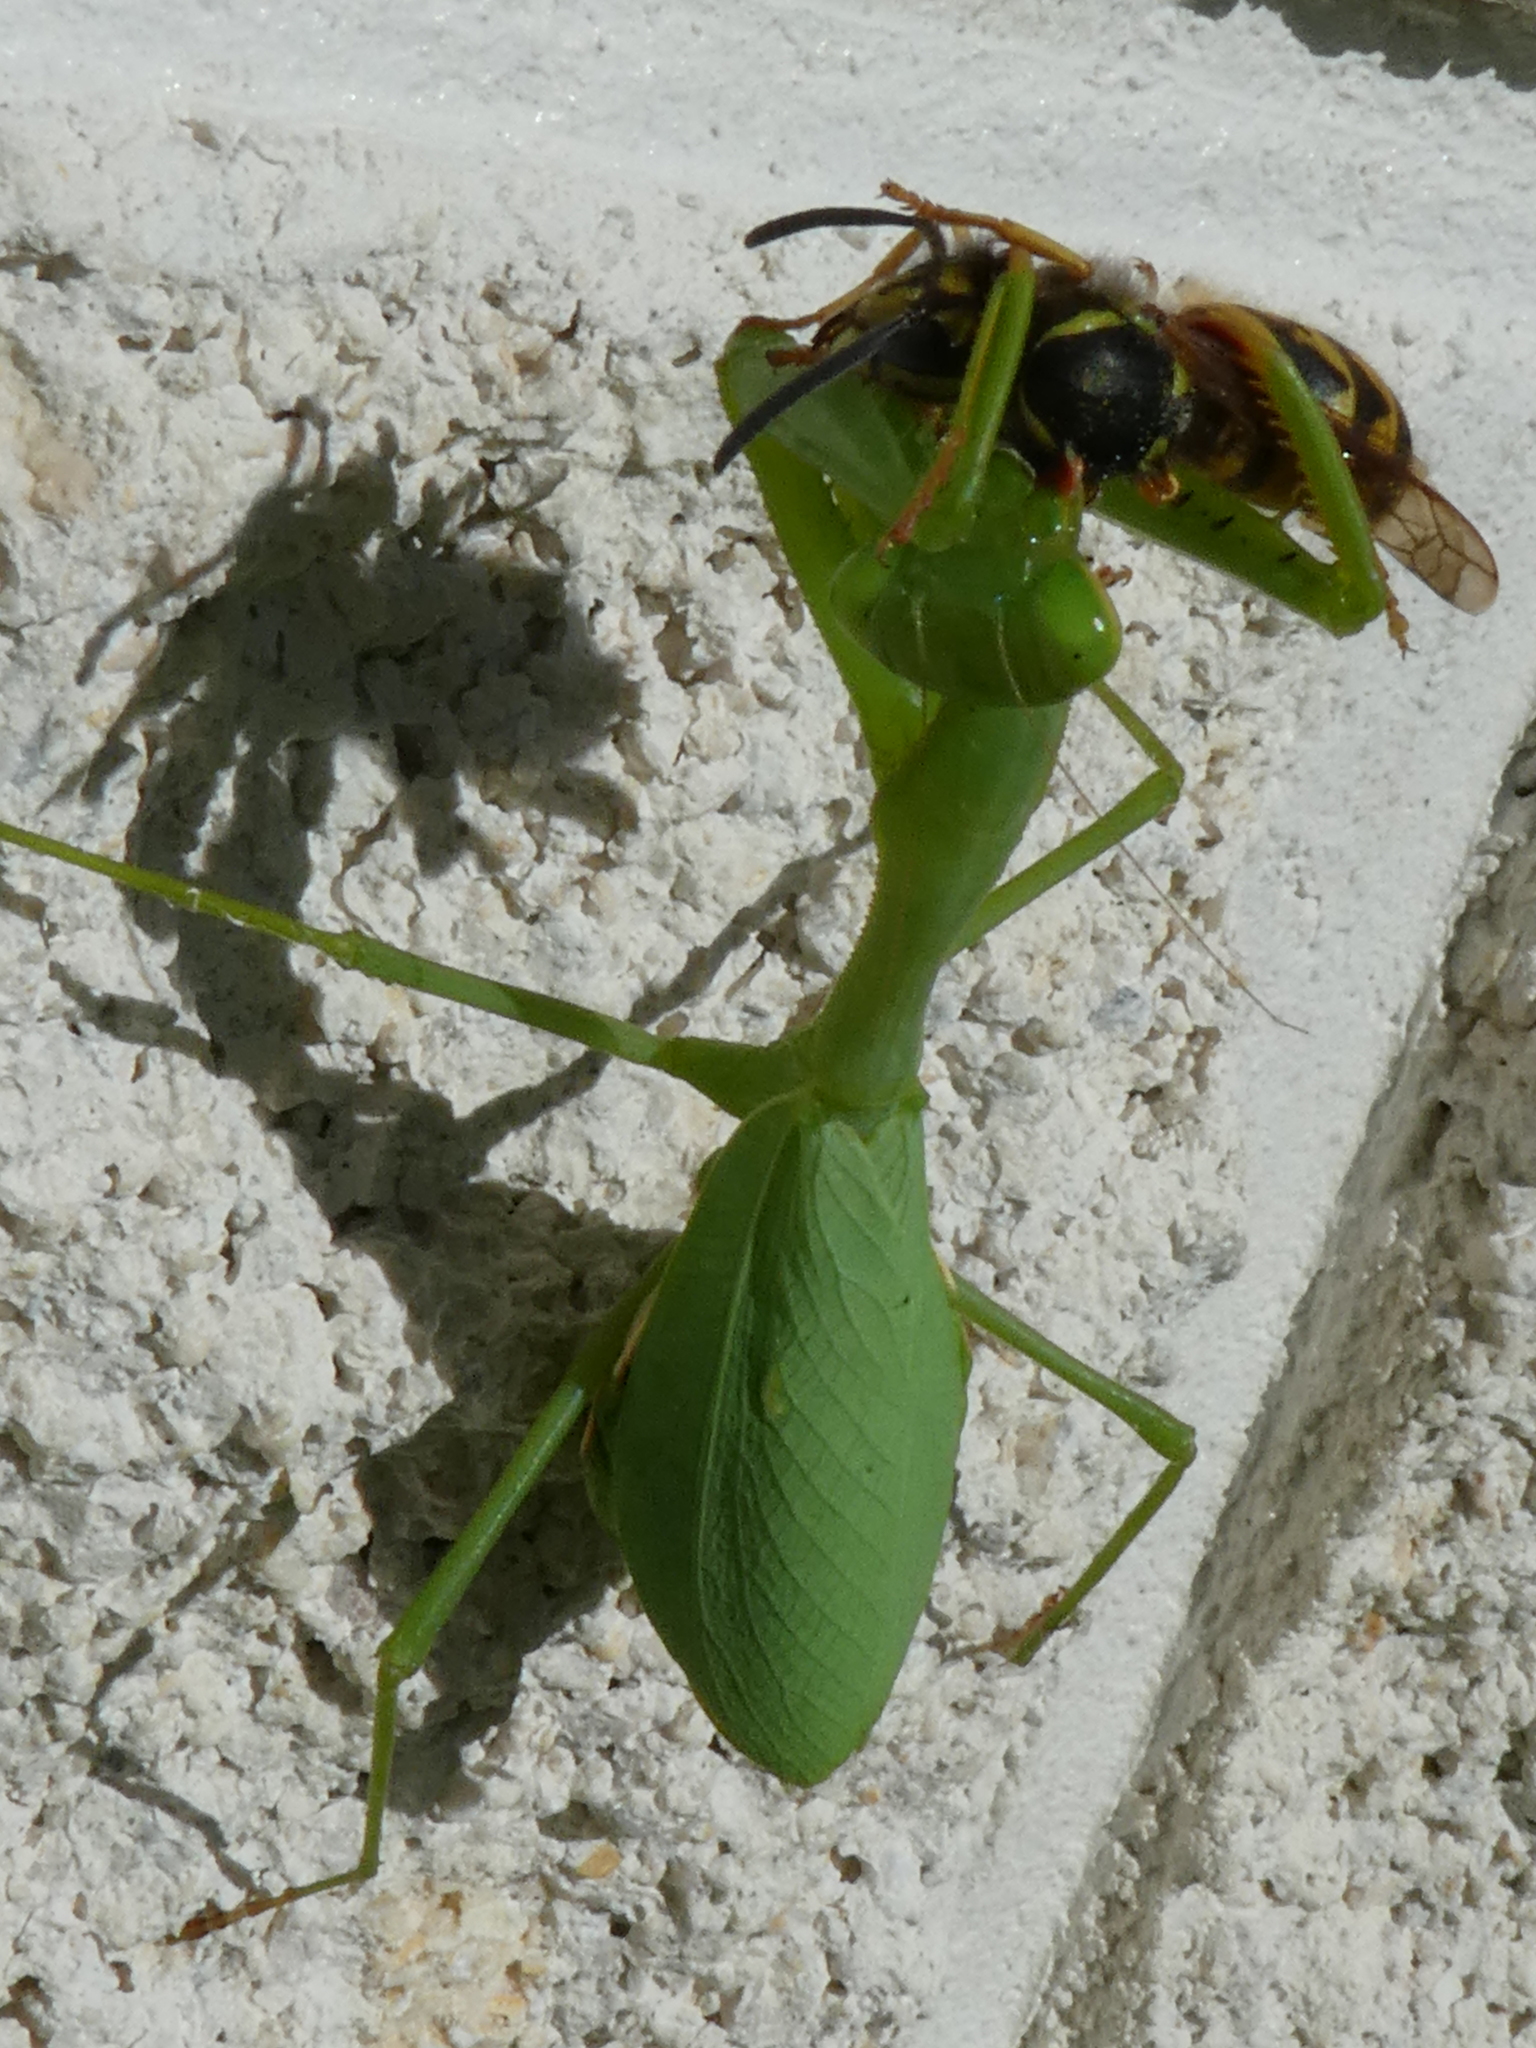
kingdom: Animalia
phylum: Arthropoda
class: Insecta
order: Mantodea
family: Miomantidae
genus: Miomantis
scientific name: Miomantis caffra
